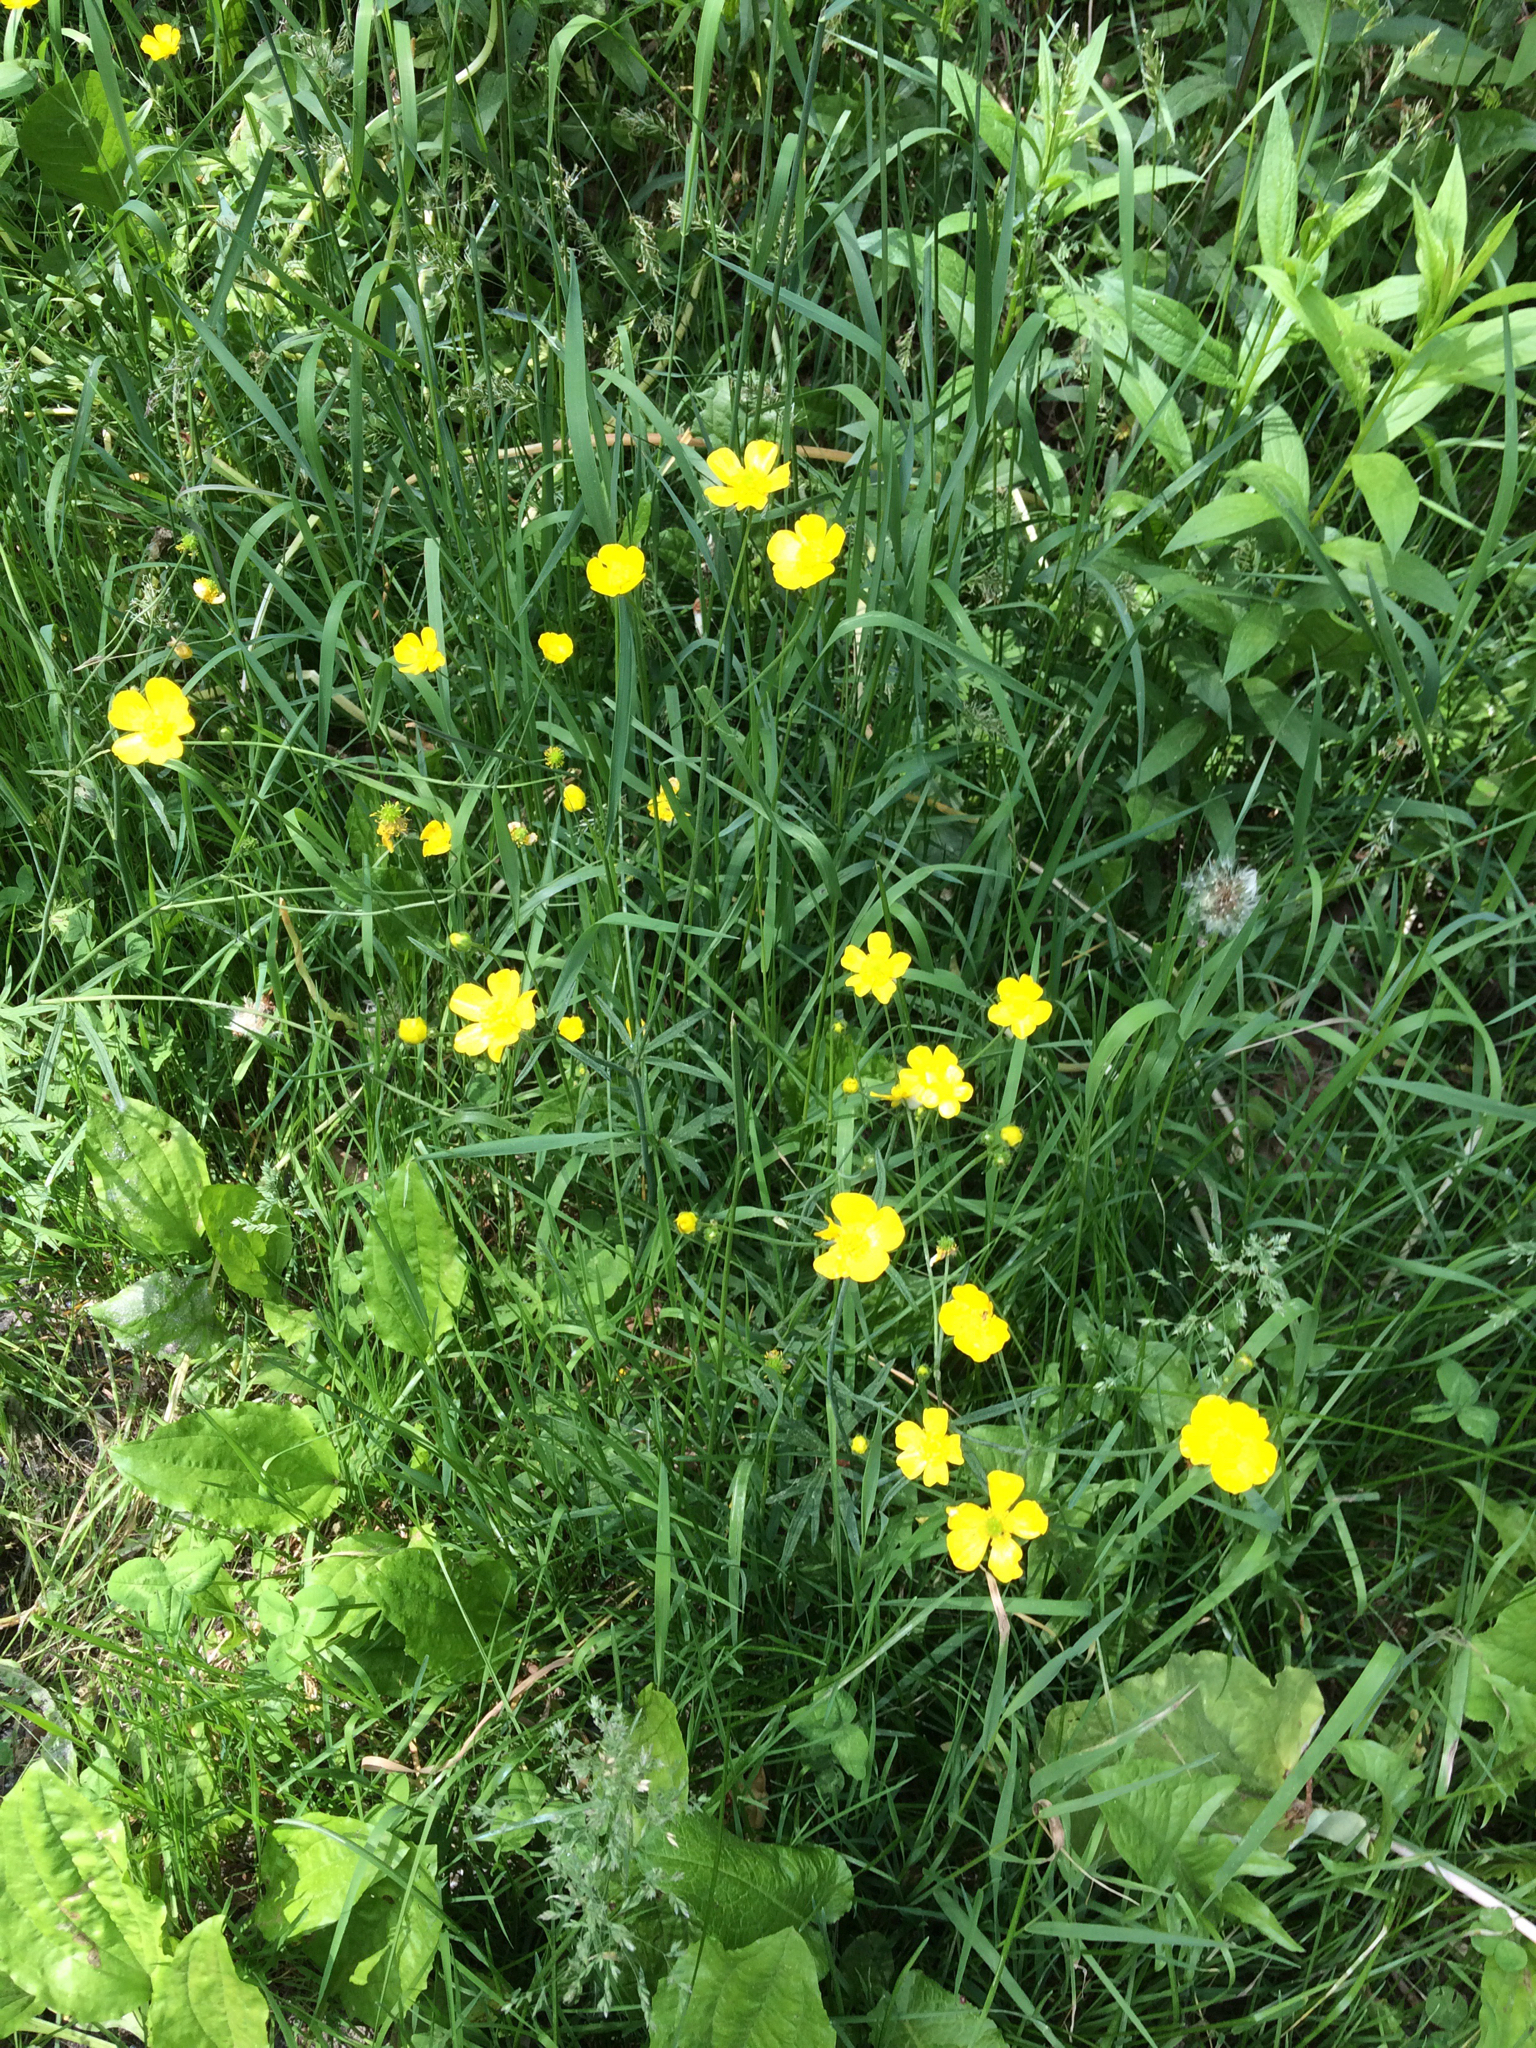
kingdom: Plantae
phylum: Tracheophyta
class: Magnoliopsida
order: Ranunculales
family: Ranunculaceae
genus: Ranunculus
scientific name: Ranunculus acris
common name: Meadow buttercup
